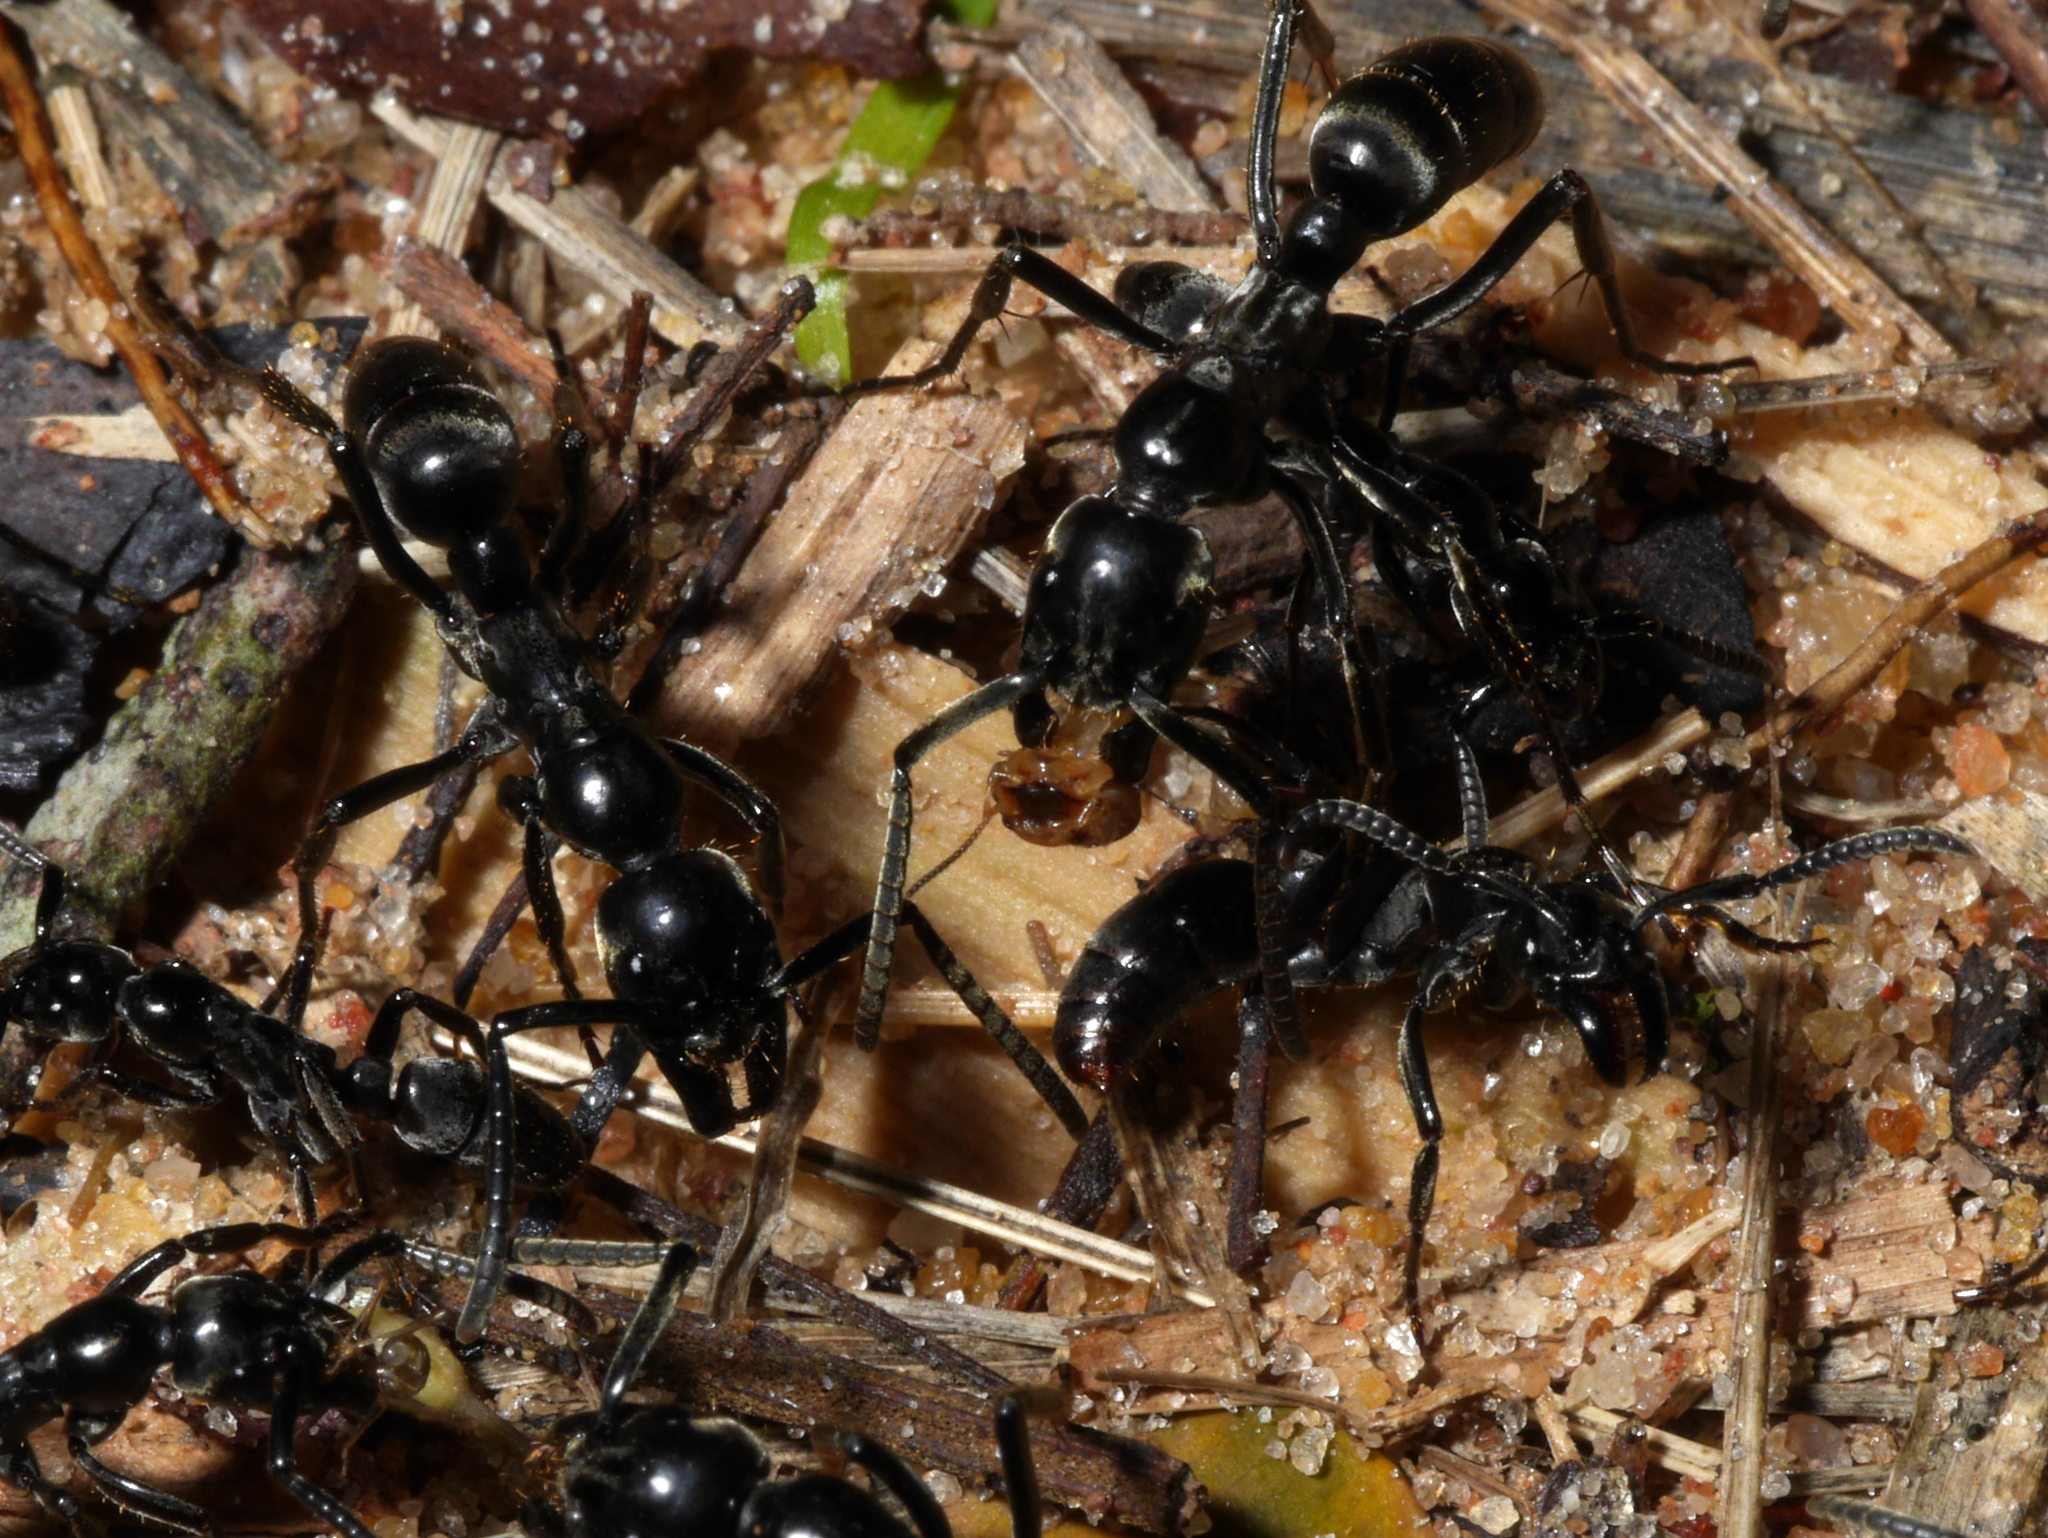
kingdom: Animalia
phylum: Arthropoda
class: Insecta
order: Hymenoptera
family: Formicidae
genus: Megaponera
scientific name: Megaponera analis
